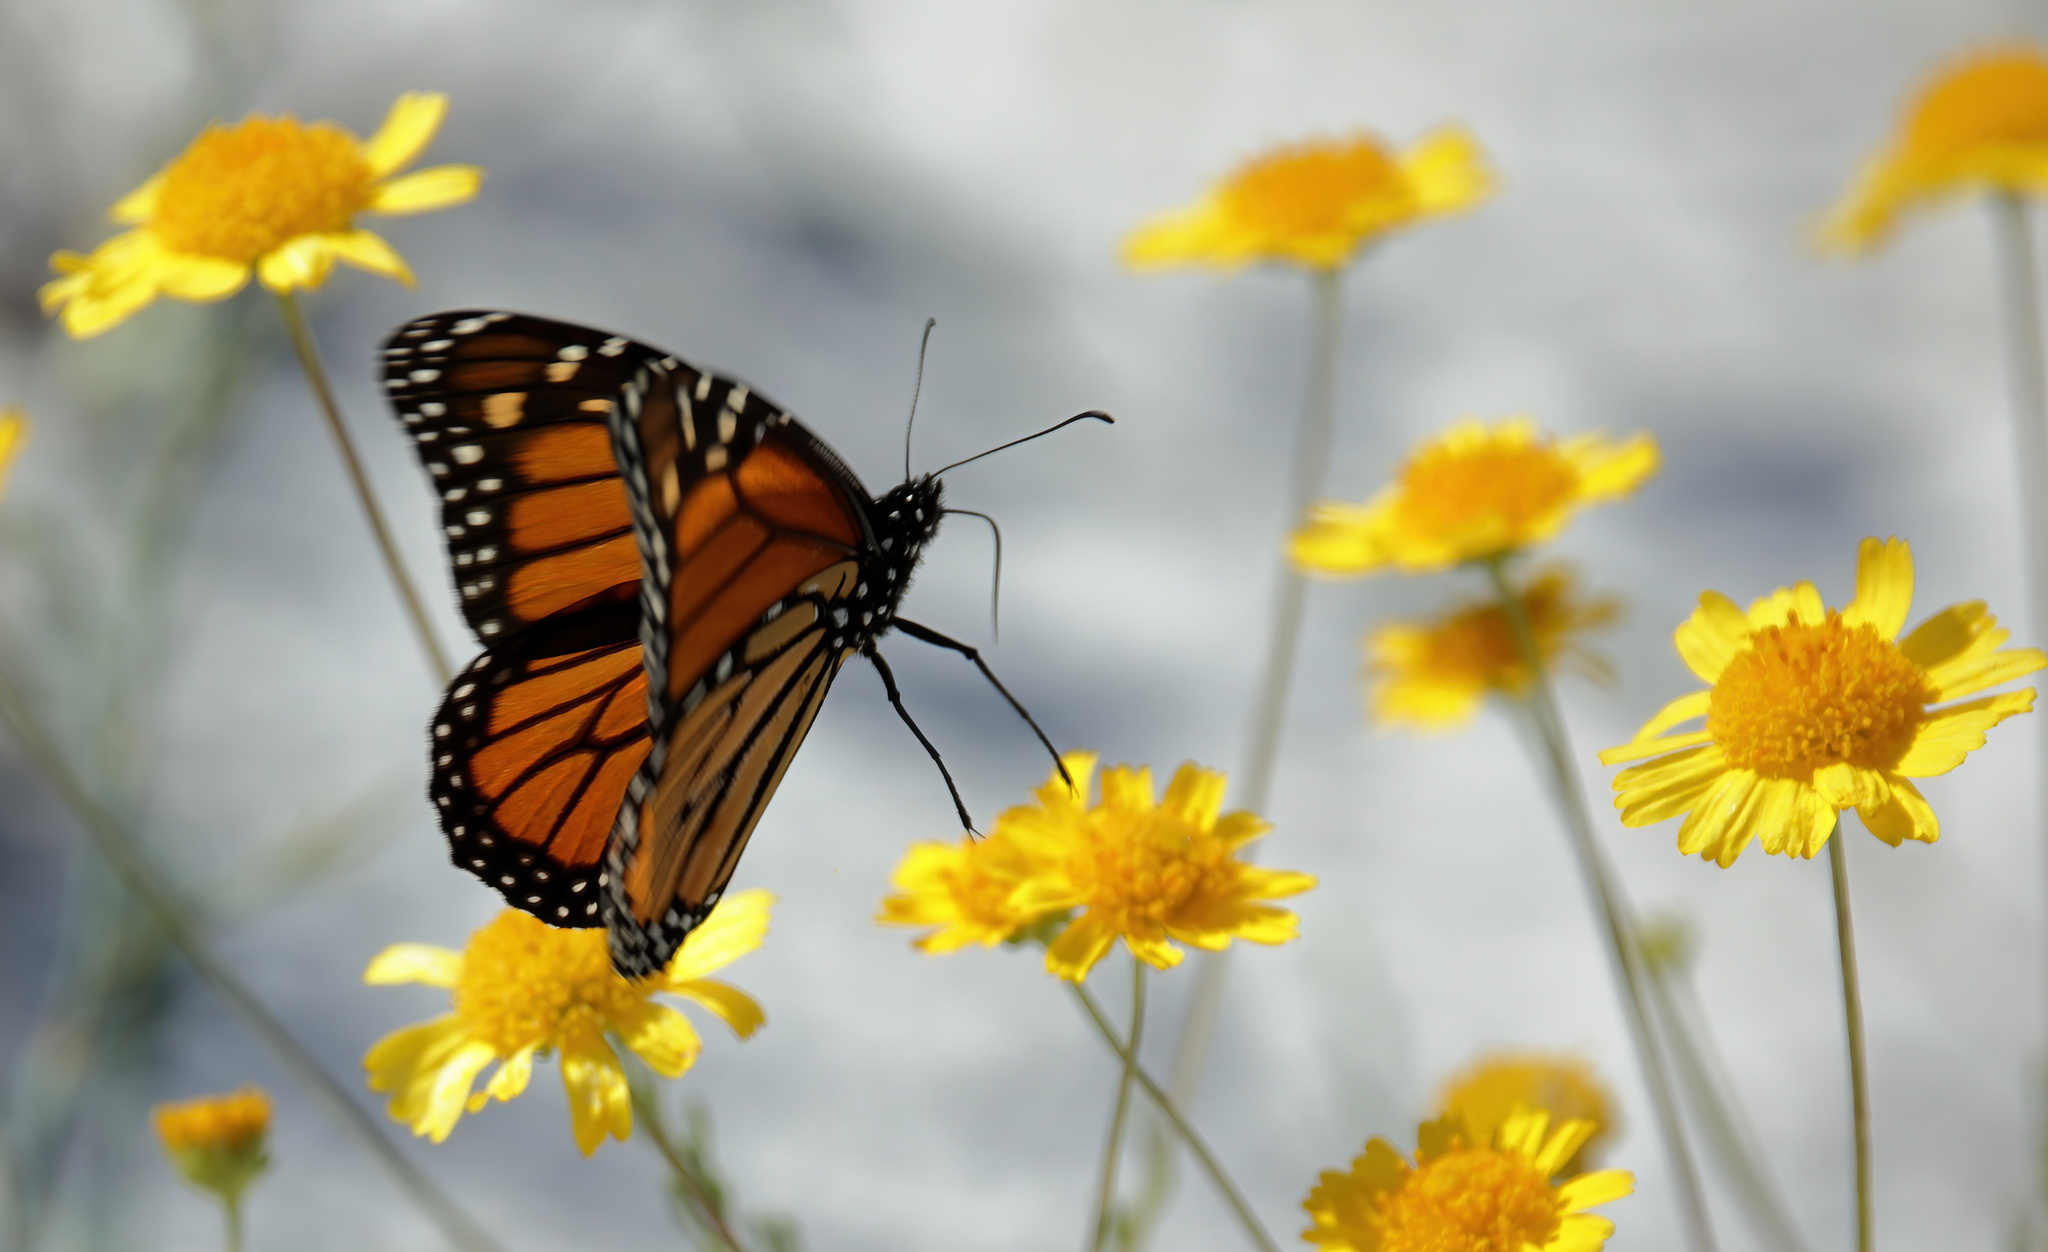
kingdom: Animalia
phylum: Arthropoda
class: Insecta
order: Lepidoptera
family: Nymphalidae
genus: Danaus
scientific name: Danaus plexippus
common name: Monarch
